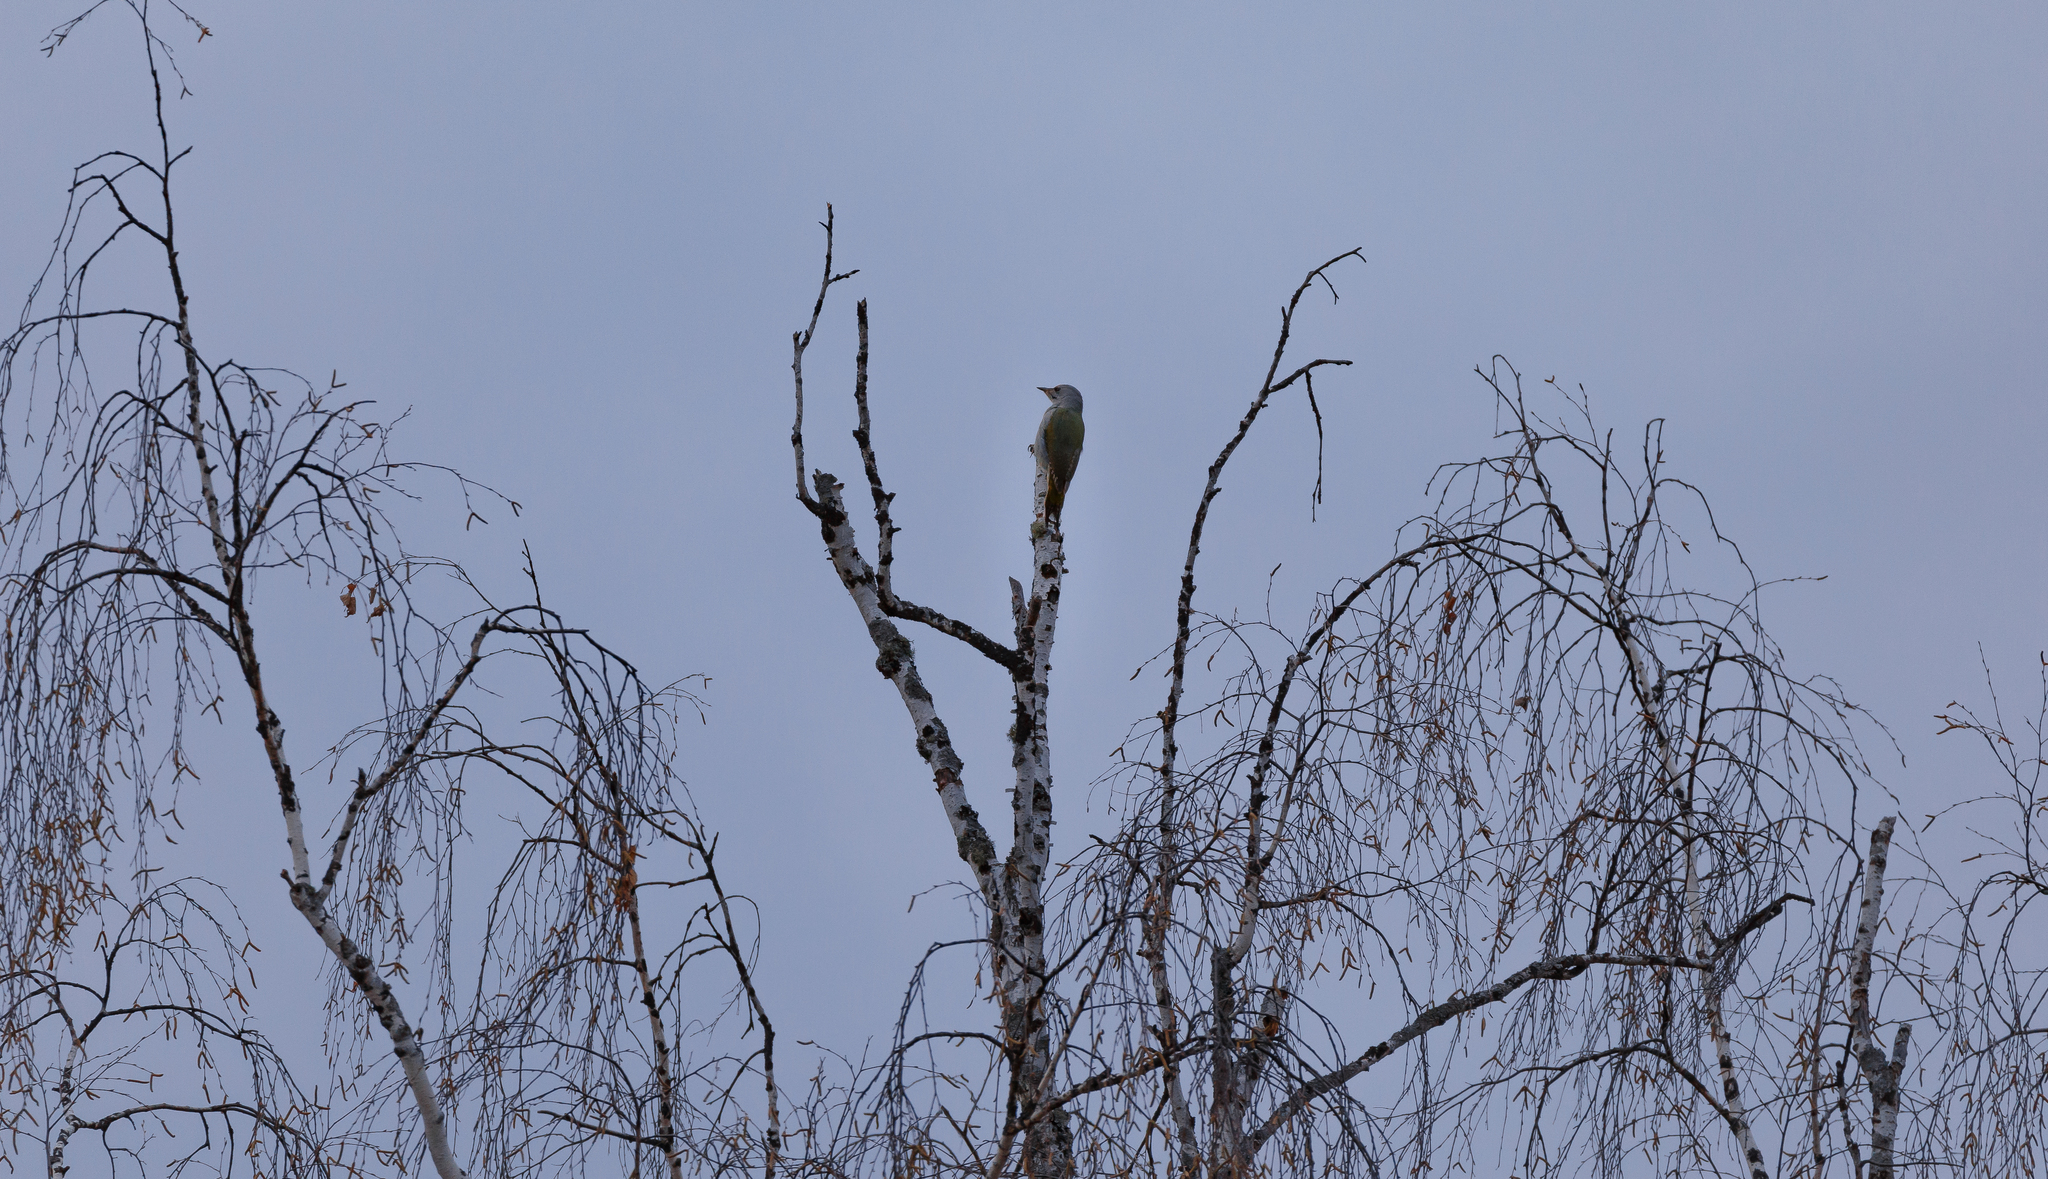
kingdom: Animalia
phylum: Chordata
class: Aves
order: Piciformes
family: Picidae
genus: Picus
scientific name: Picus canus
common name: Grey-headed woodpecker
